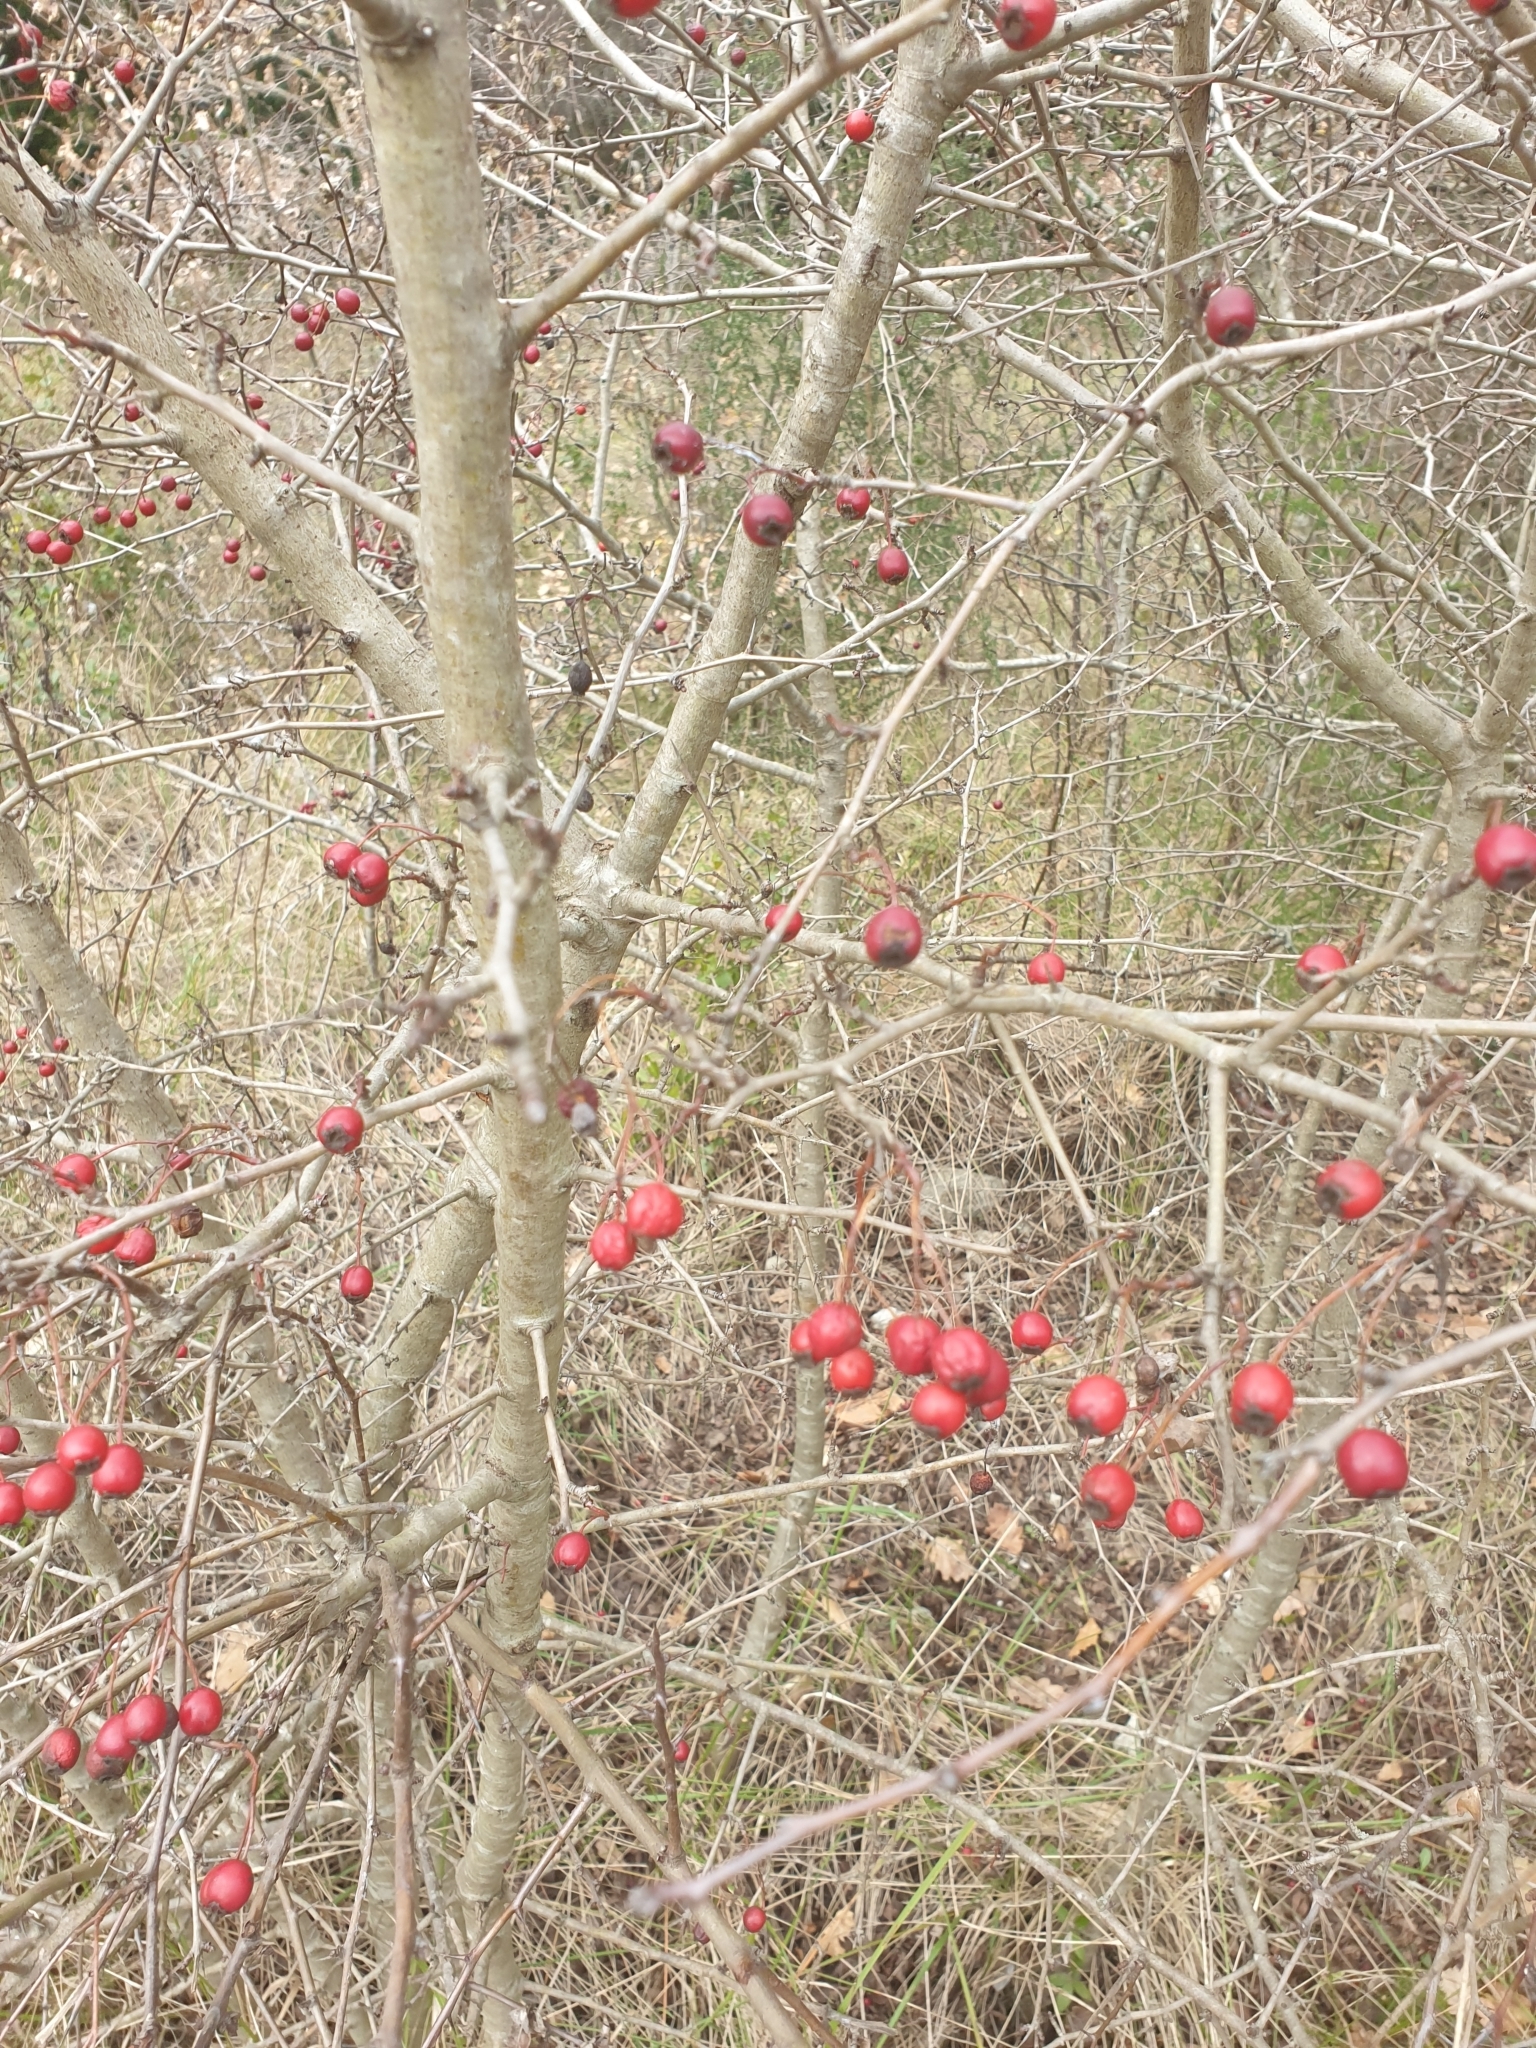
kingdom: Plantae
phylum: Tracheophyta
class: Magnoliopsida
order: Rosales
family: Rosaceae
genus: Rosa
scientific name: Rosa canina
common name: Dog rose
